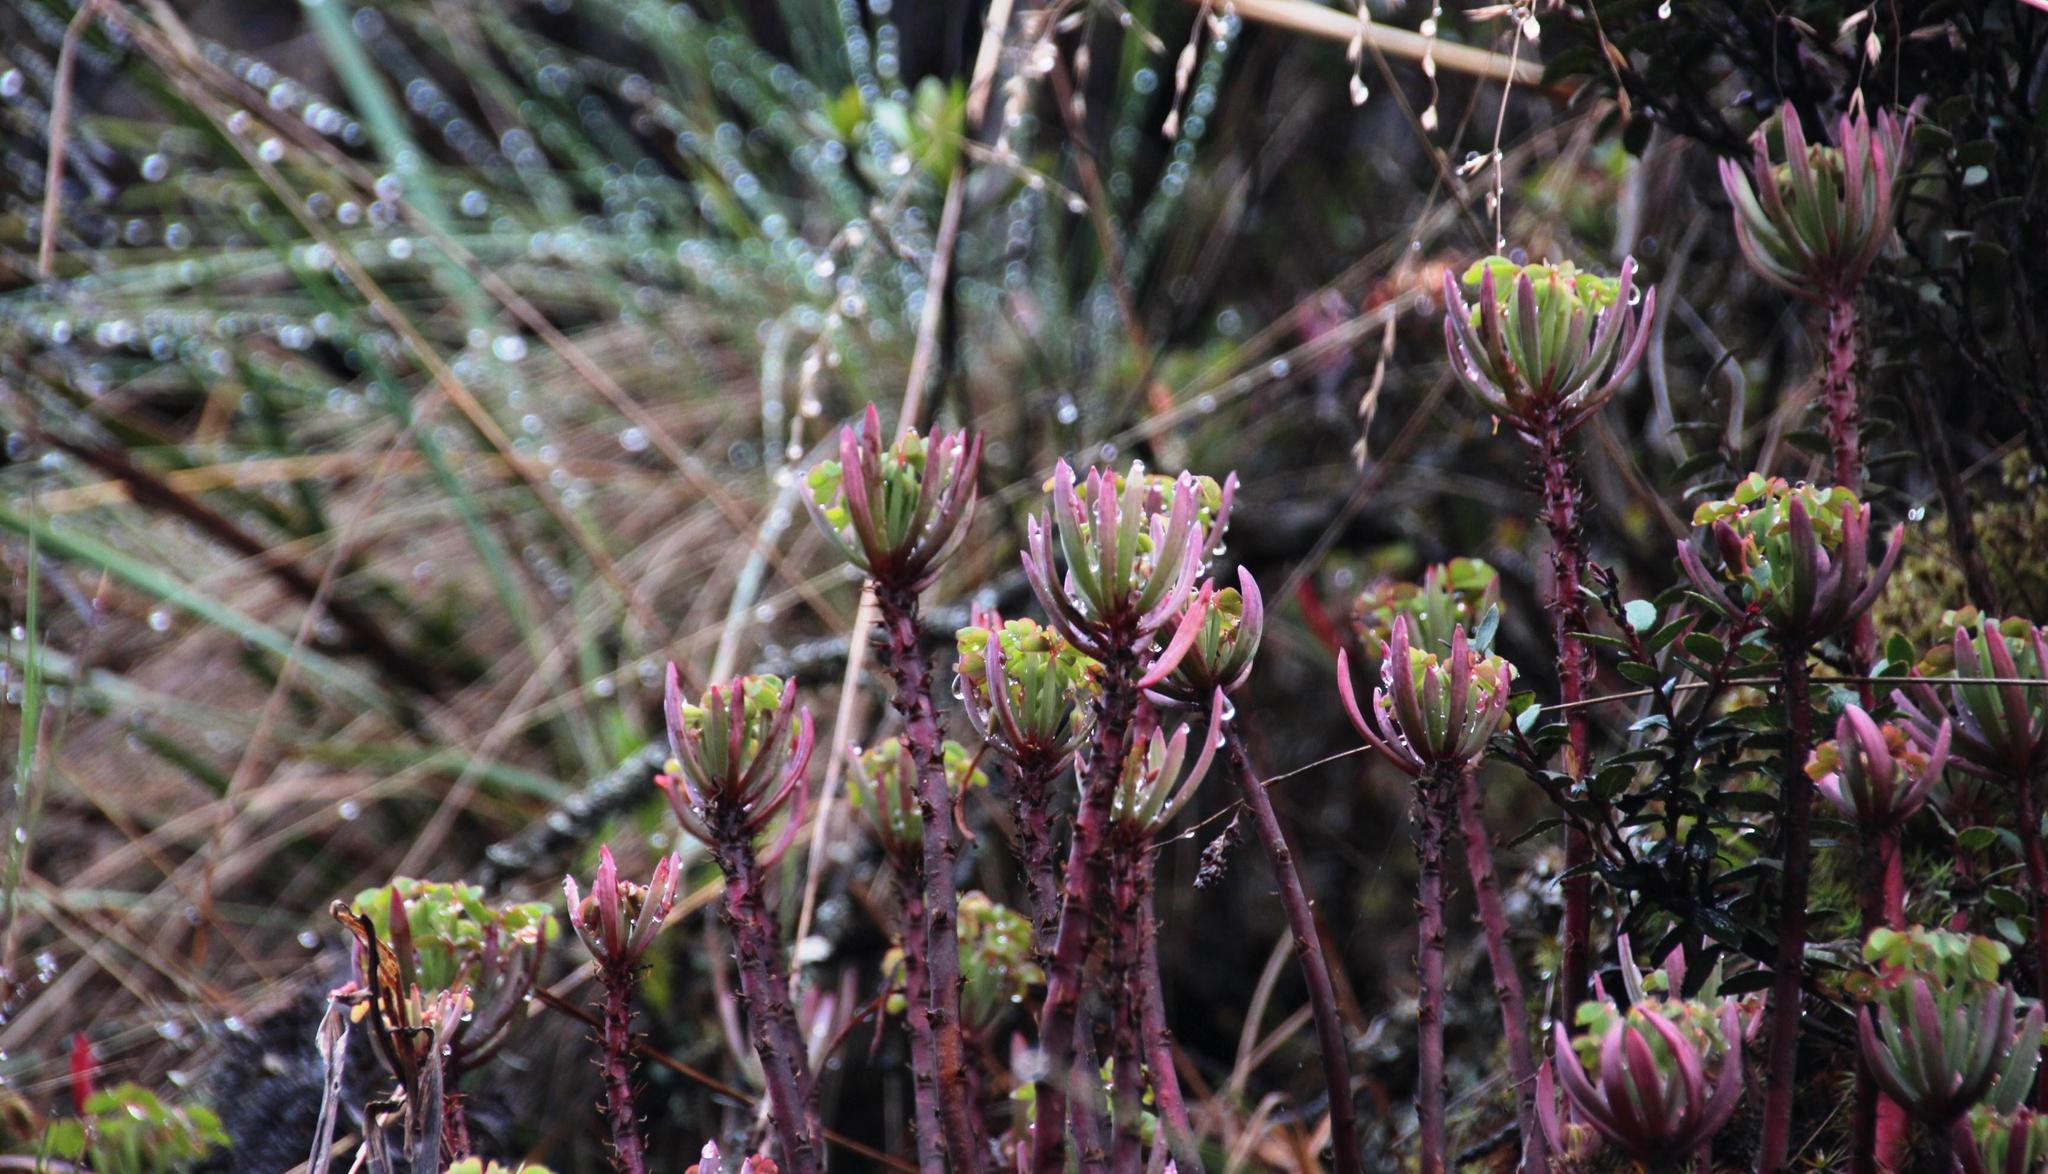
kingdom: Plantae
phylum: Tracheophyta
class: Magnoliopsida
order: Oxalidales
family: Oxalidaceae
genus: Oxalis
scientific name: Oxalis teneriensis
